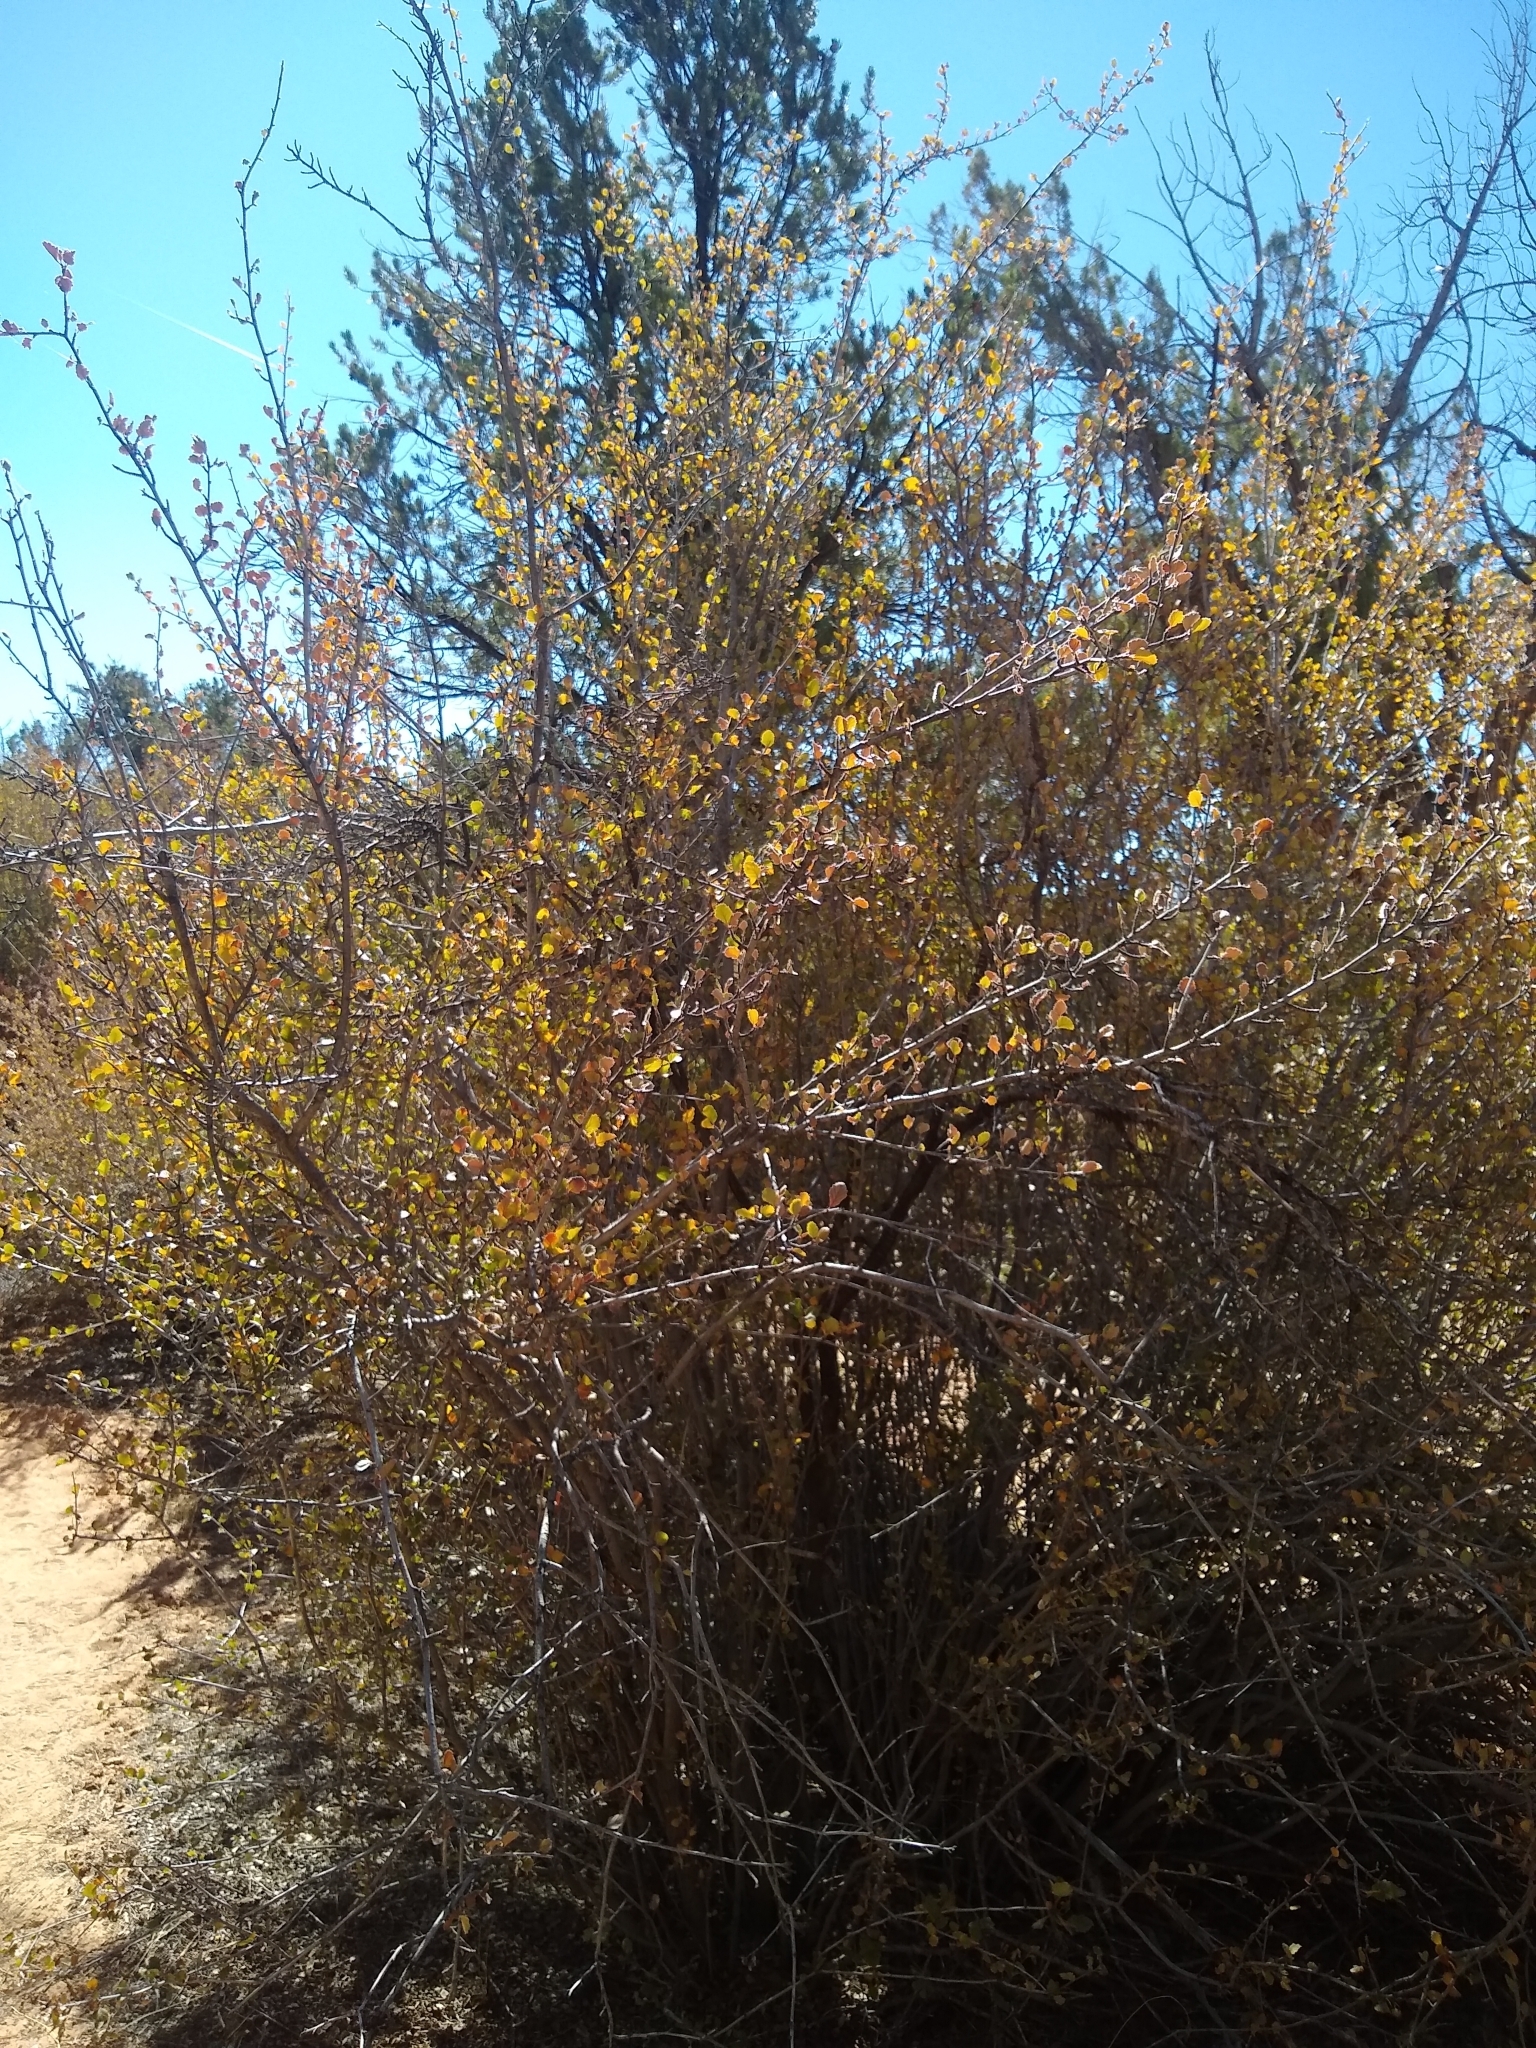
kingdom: Plantae
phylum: Tracheophyta
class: Magnoliopsida
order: Rosales
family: Rosaceae
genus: Cercocarpus
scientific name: Cercocarpus montanus
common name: Alder-leaf cercocarpus
